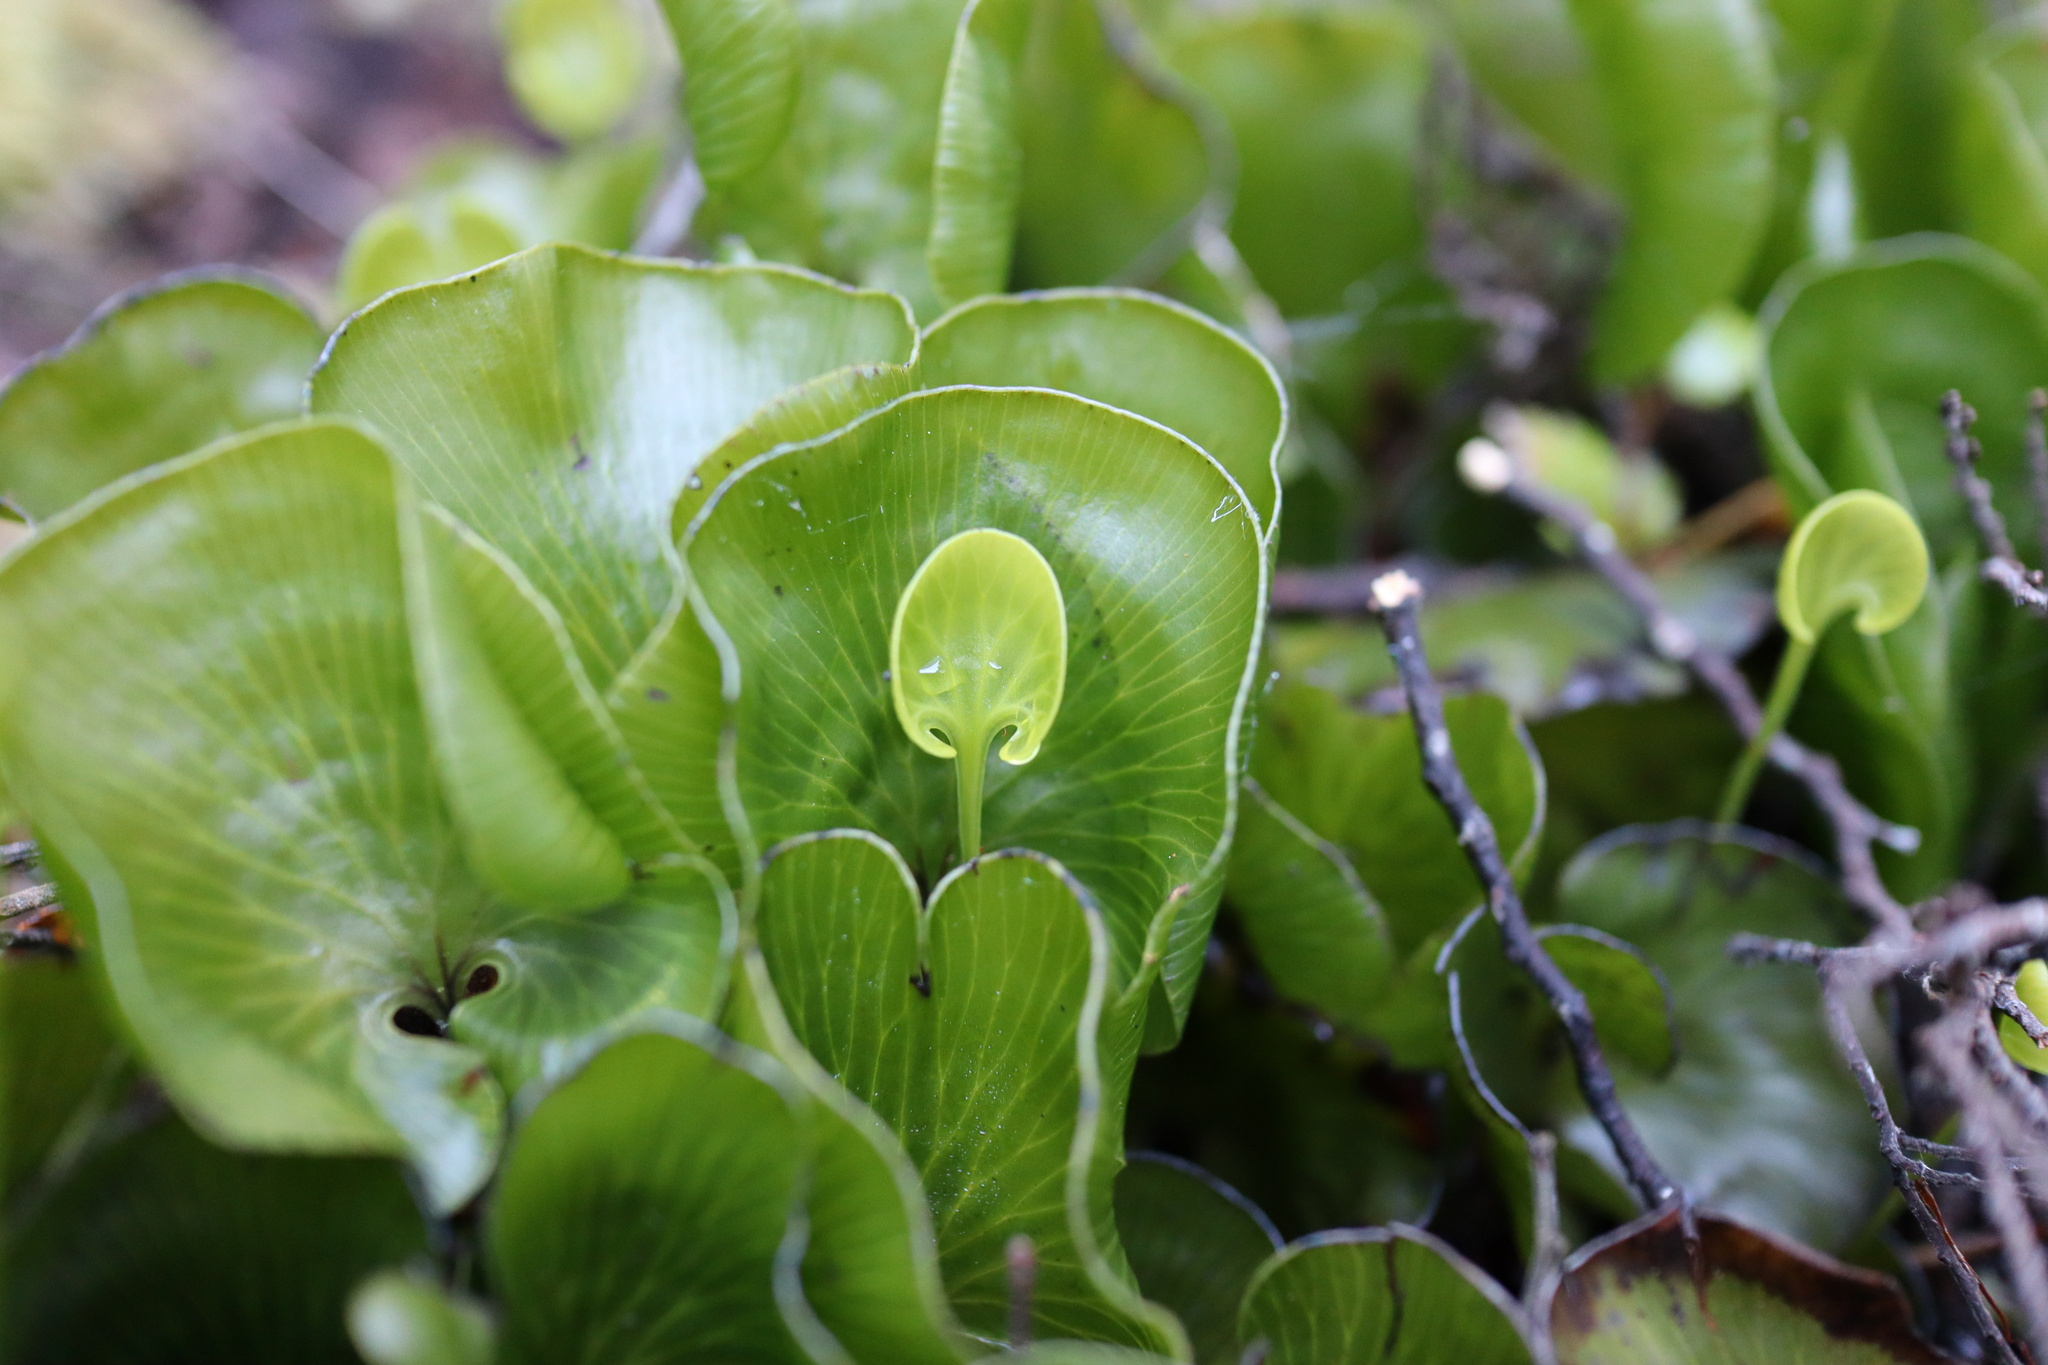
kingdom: Plantae
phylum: Tracheophyta
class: Polypodiopsida
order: Hymenophyllales
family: Hymenophyllaceae
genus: Hymenophyllum
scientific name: Hymenophyllum nephrophyllum
